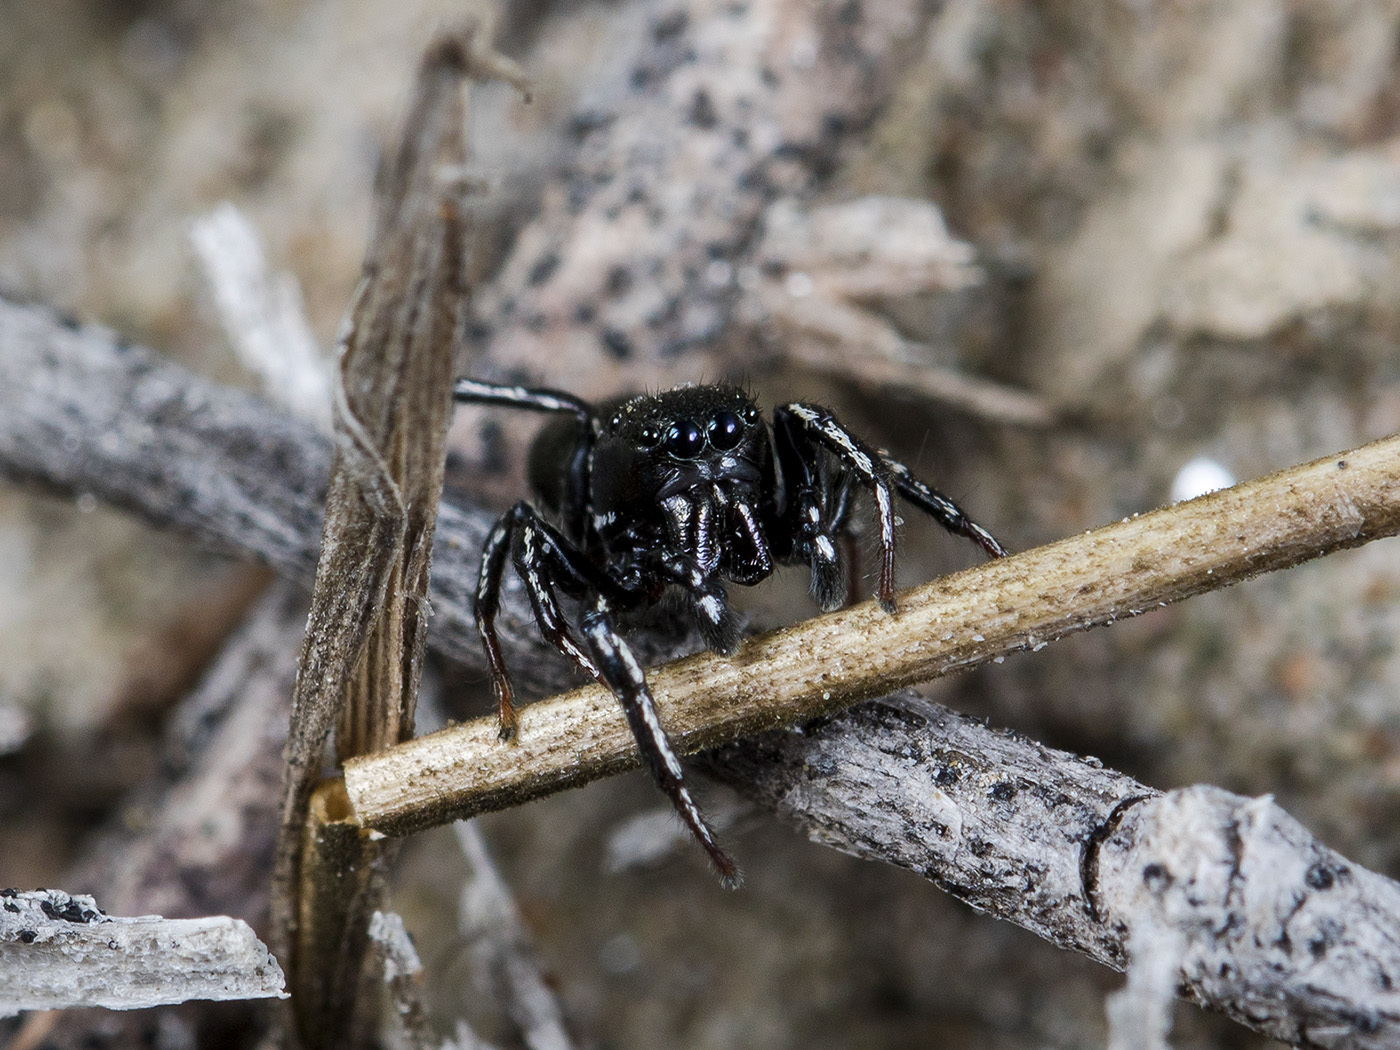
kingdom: Animalia
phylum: Arthropoda
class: Arachnida
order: Araneae
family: Salticidae
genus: Heliophanus
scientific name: Heliophanus chovdensis
